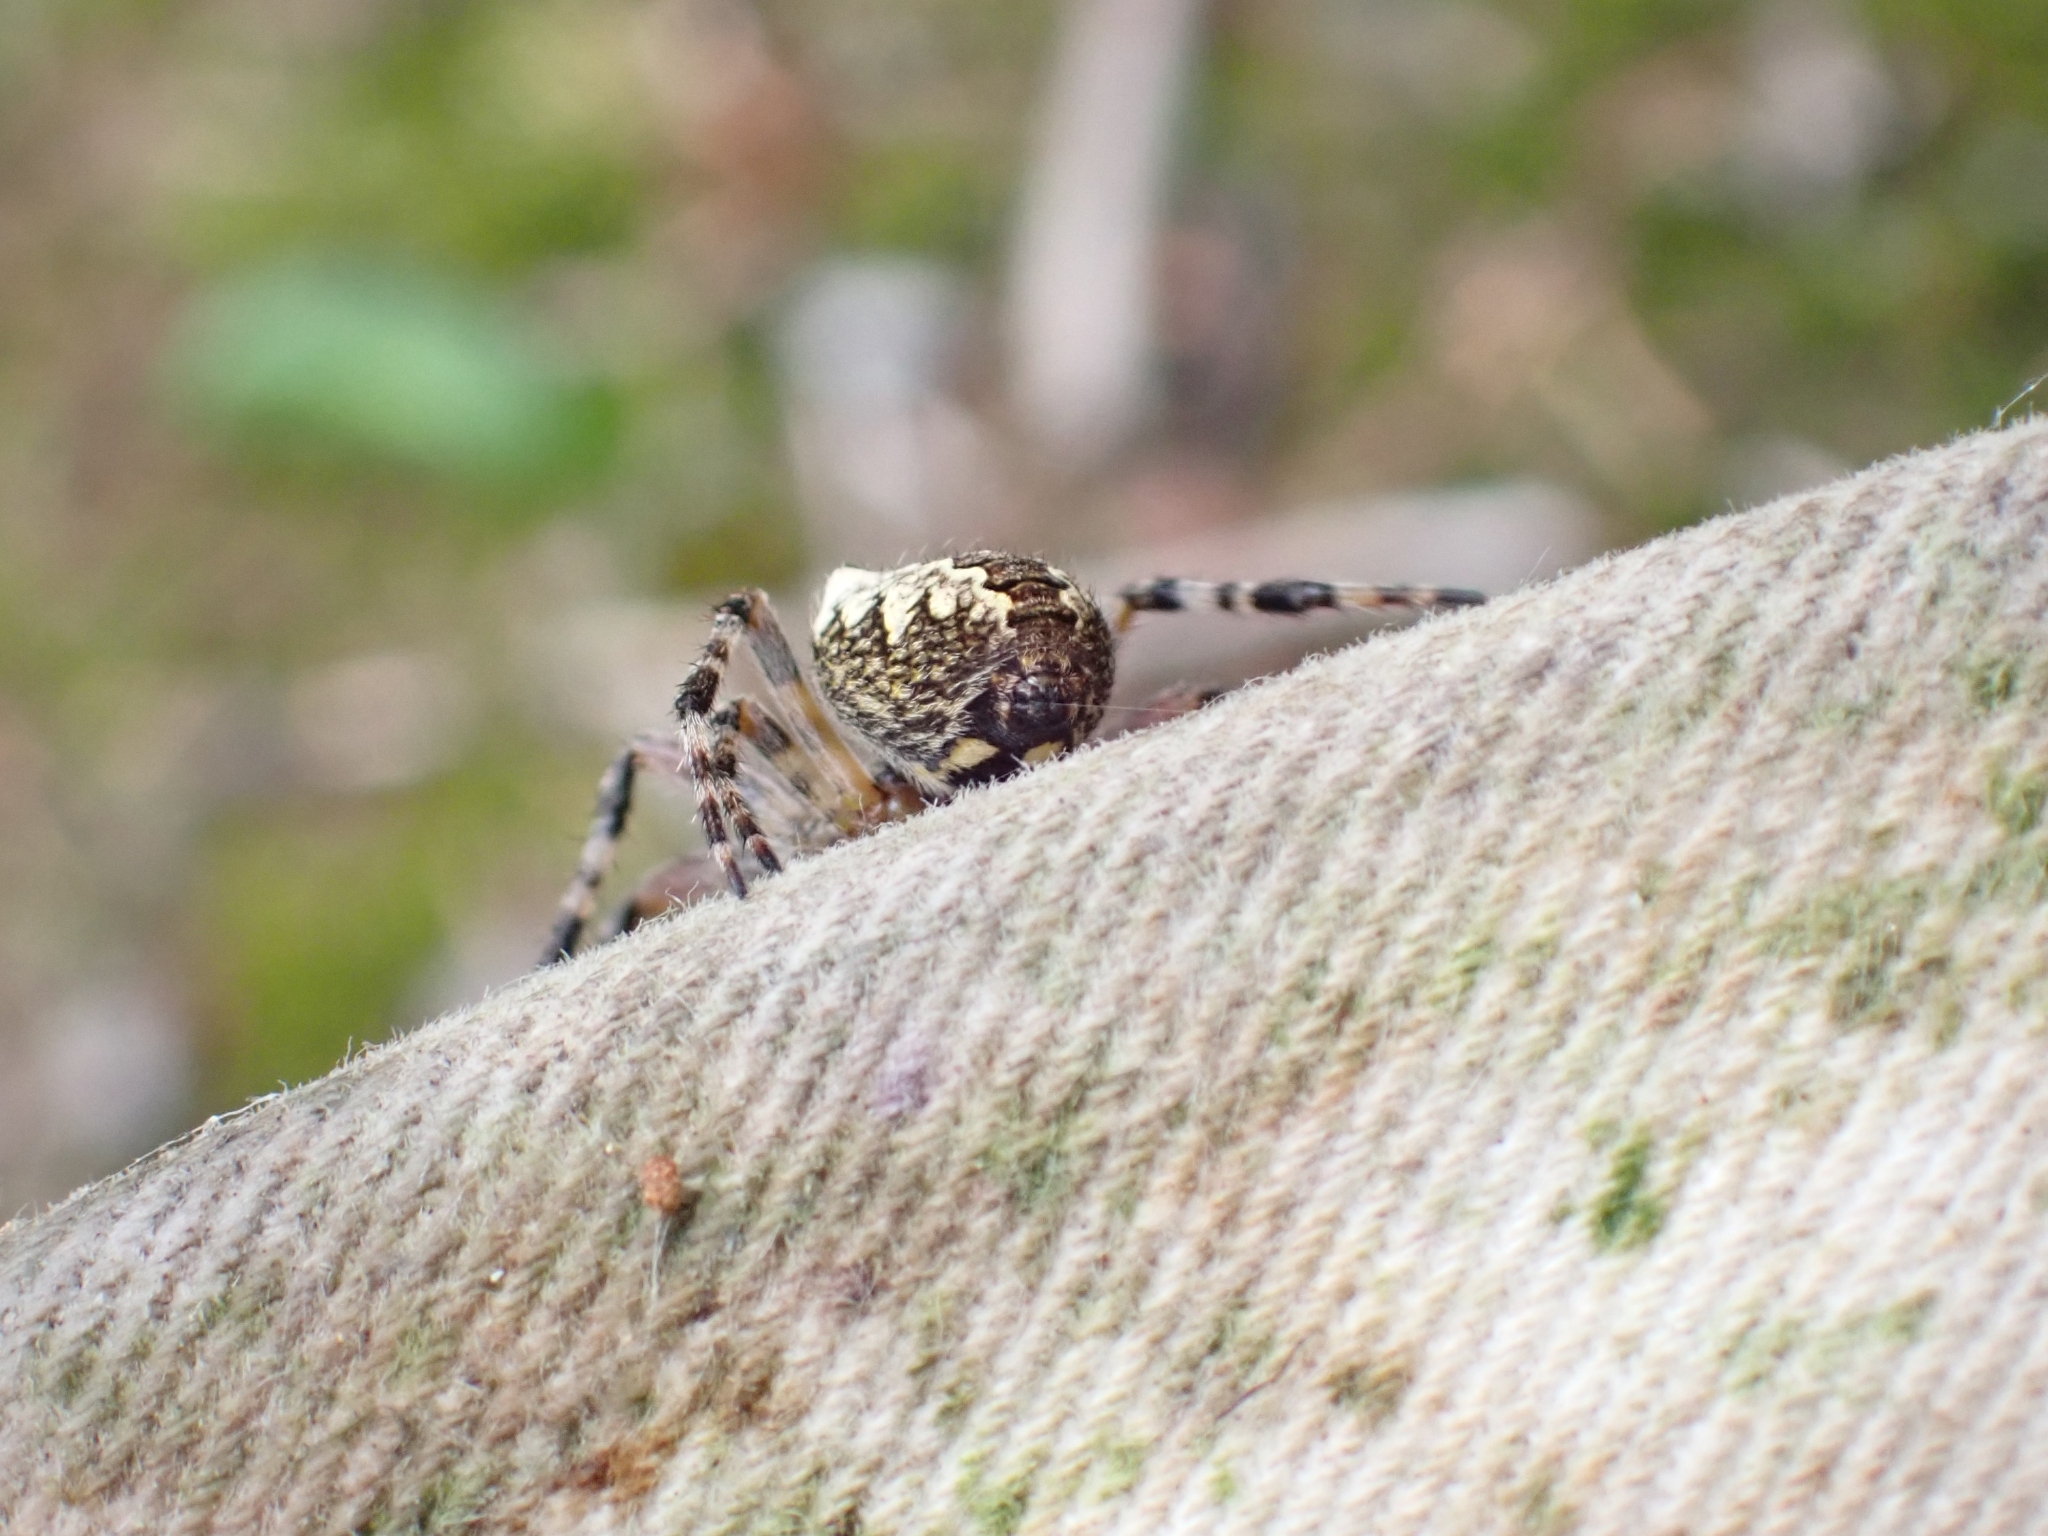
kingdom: Animalia
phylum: Arthropoda
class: Arachnida
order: Araneae
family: Araneidae
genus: Araneus
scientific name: Araneus nordmanni
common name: Nordmann's orbweaver
